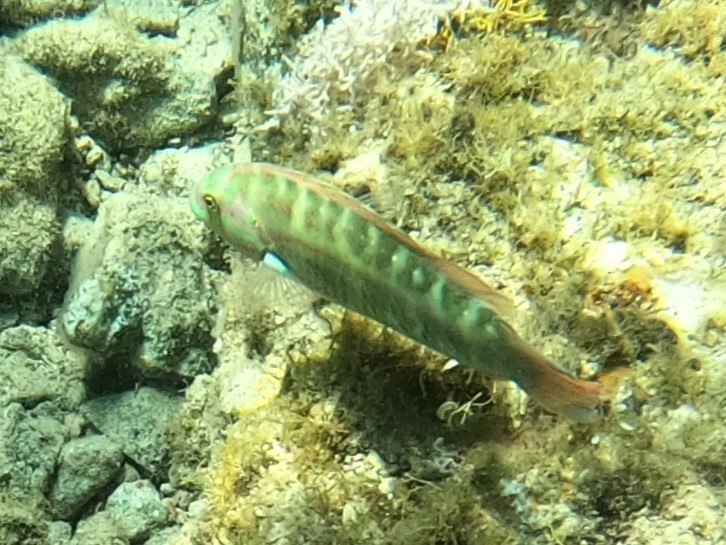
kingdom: Animalia
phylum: Chordata
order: Perciformes
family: Labridae
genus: Halichoeres
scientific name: Halichoeres bivittatus
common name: Slippery dick
